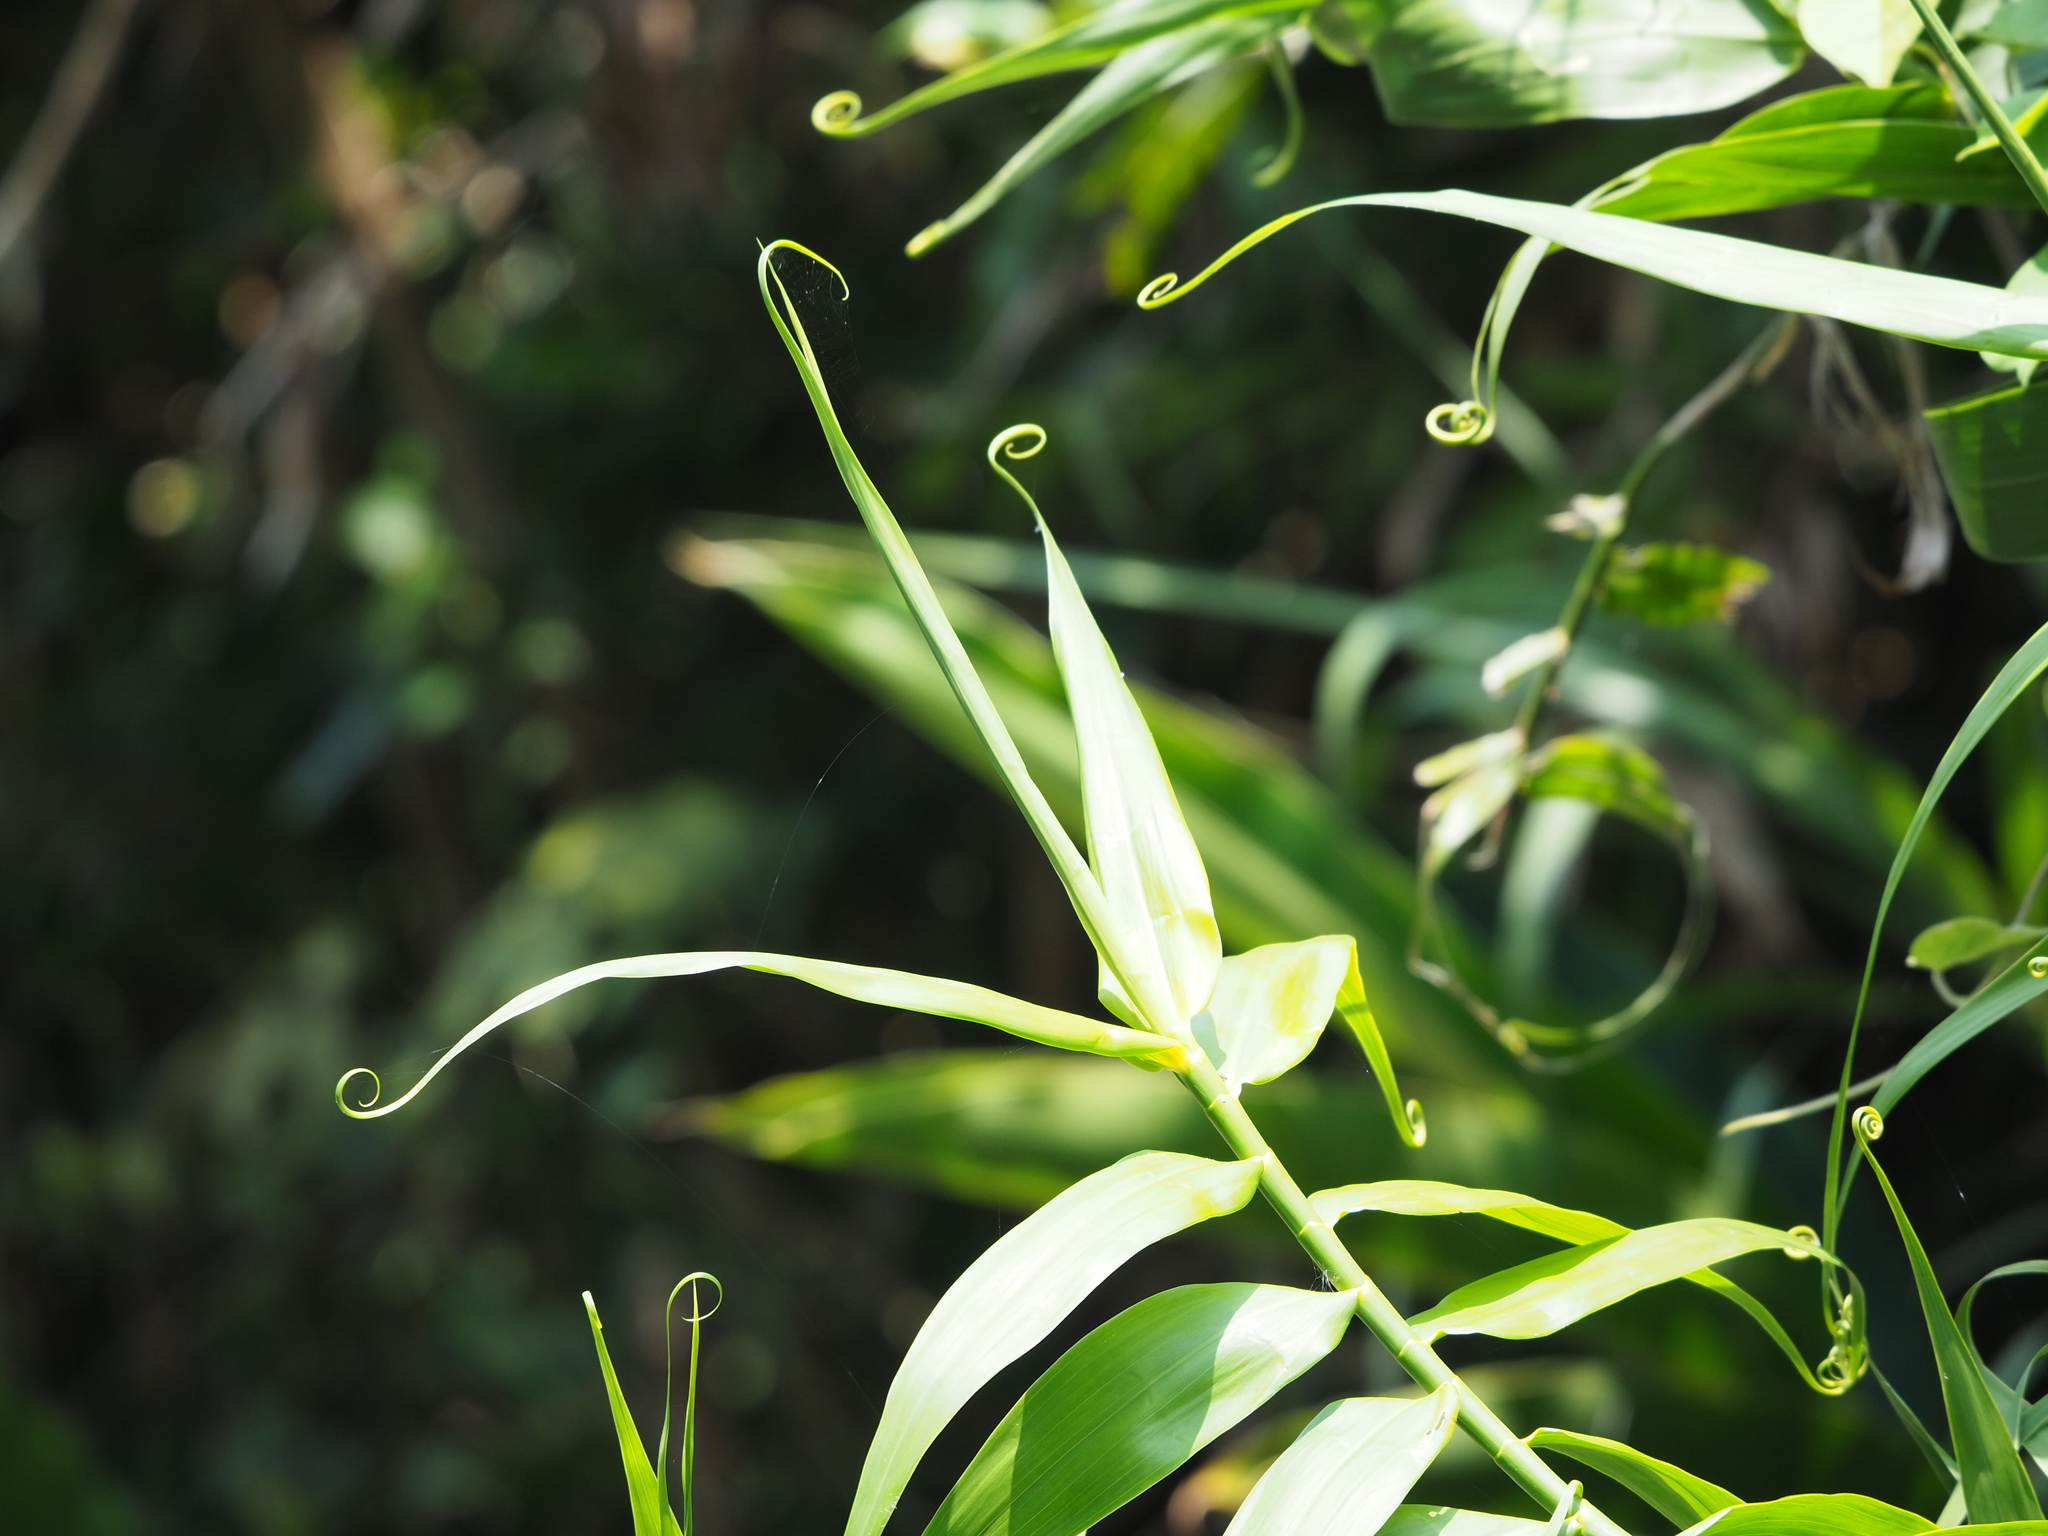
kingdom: Plantae
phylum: Tracheophyta
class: Liliopsida
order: Poales
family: Flagellariaceae
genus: Flagellaria
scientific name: Flagellaria indica
